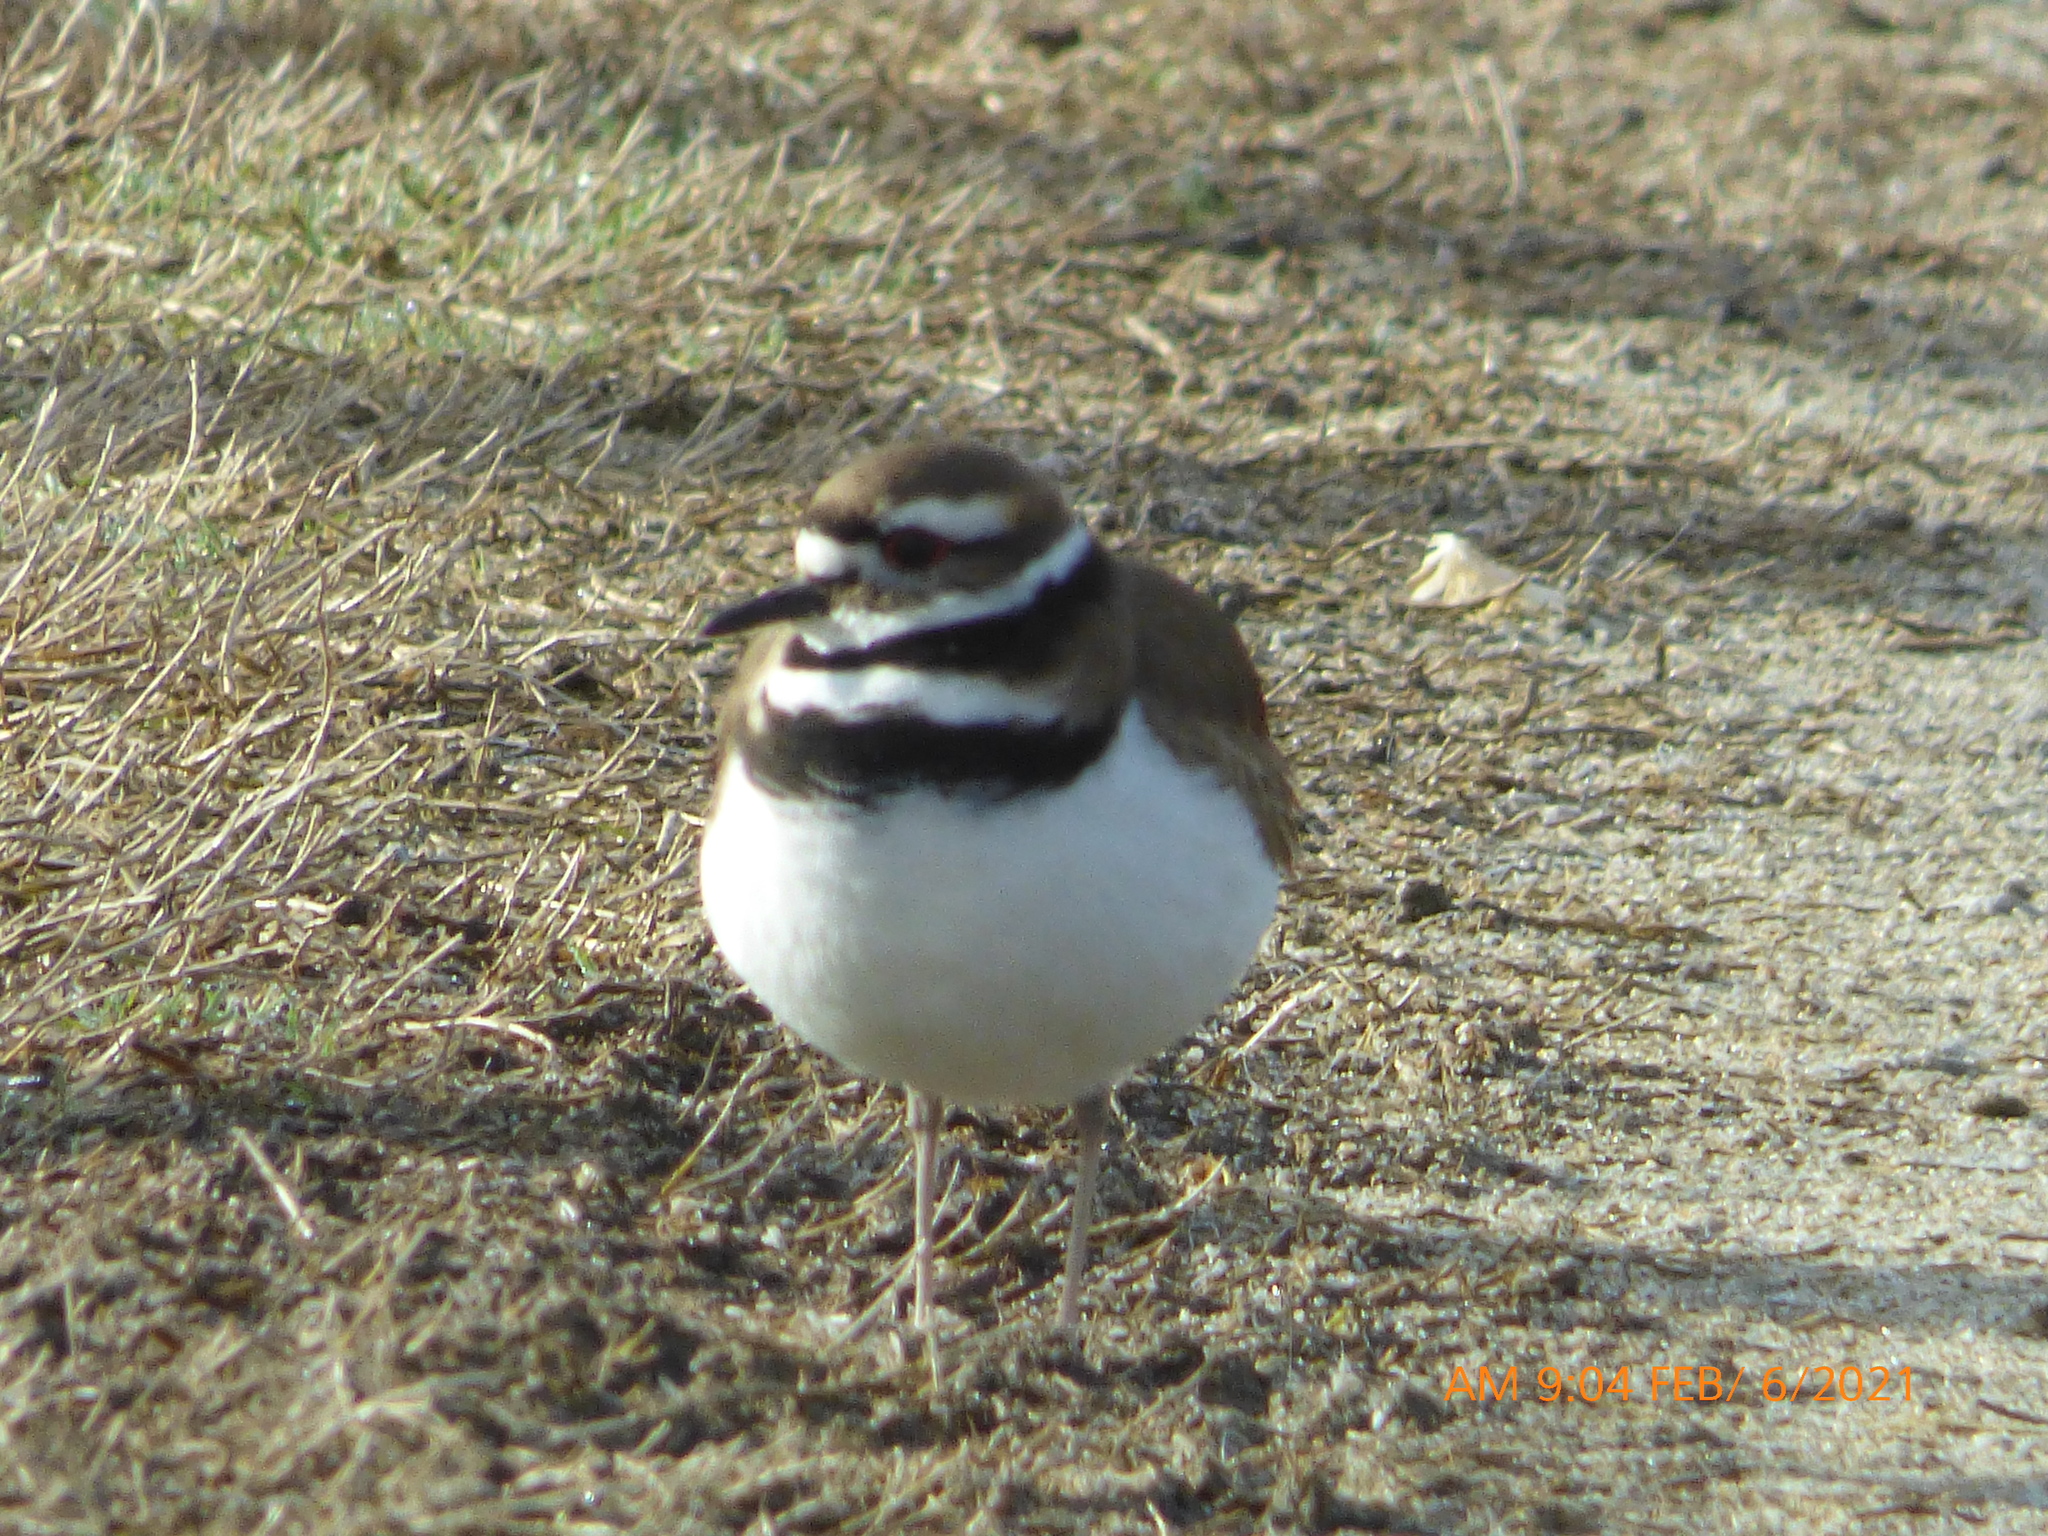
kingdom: Animalia
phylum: Chordata
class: Aves
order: Charadriiformes
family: Charadriidae
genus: Charadrius
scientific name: Charadrius vociferus
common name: Killdeer
